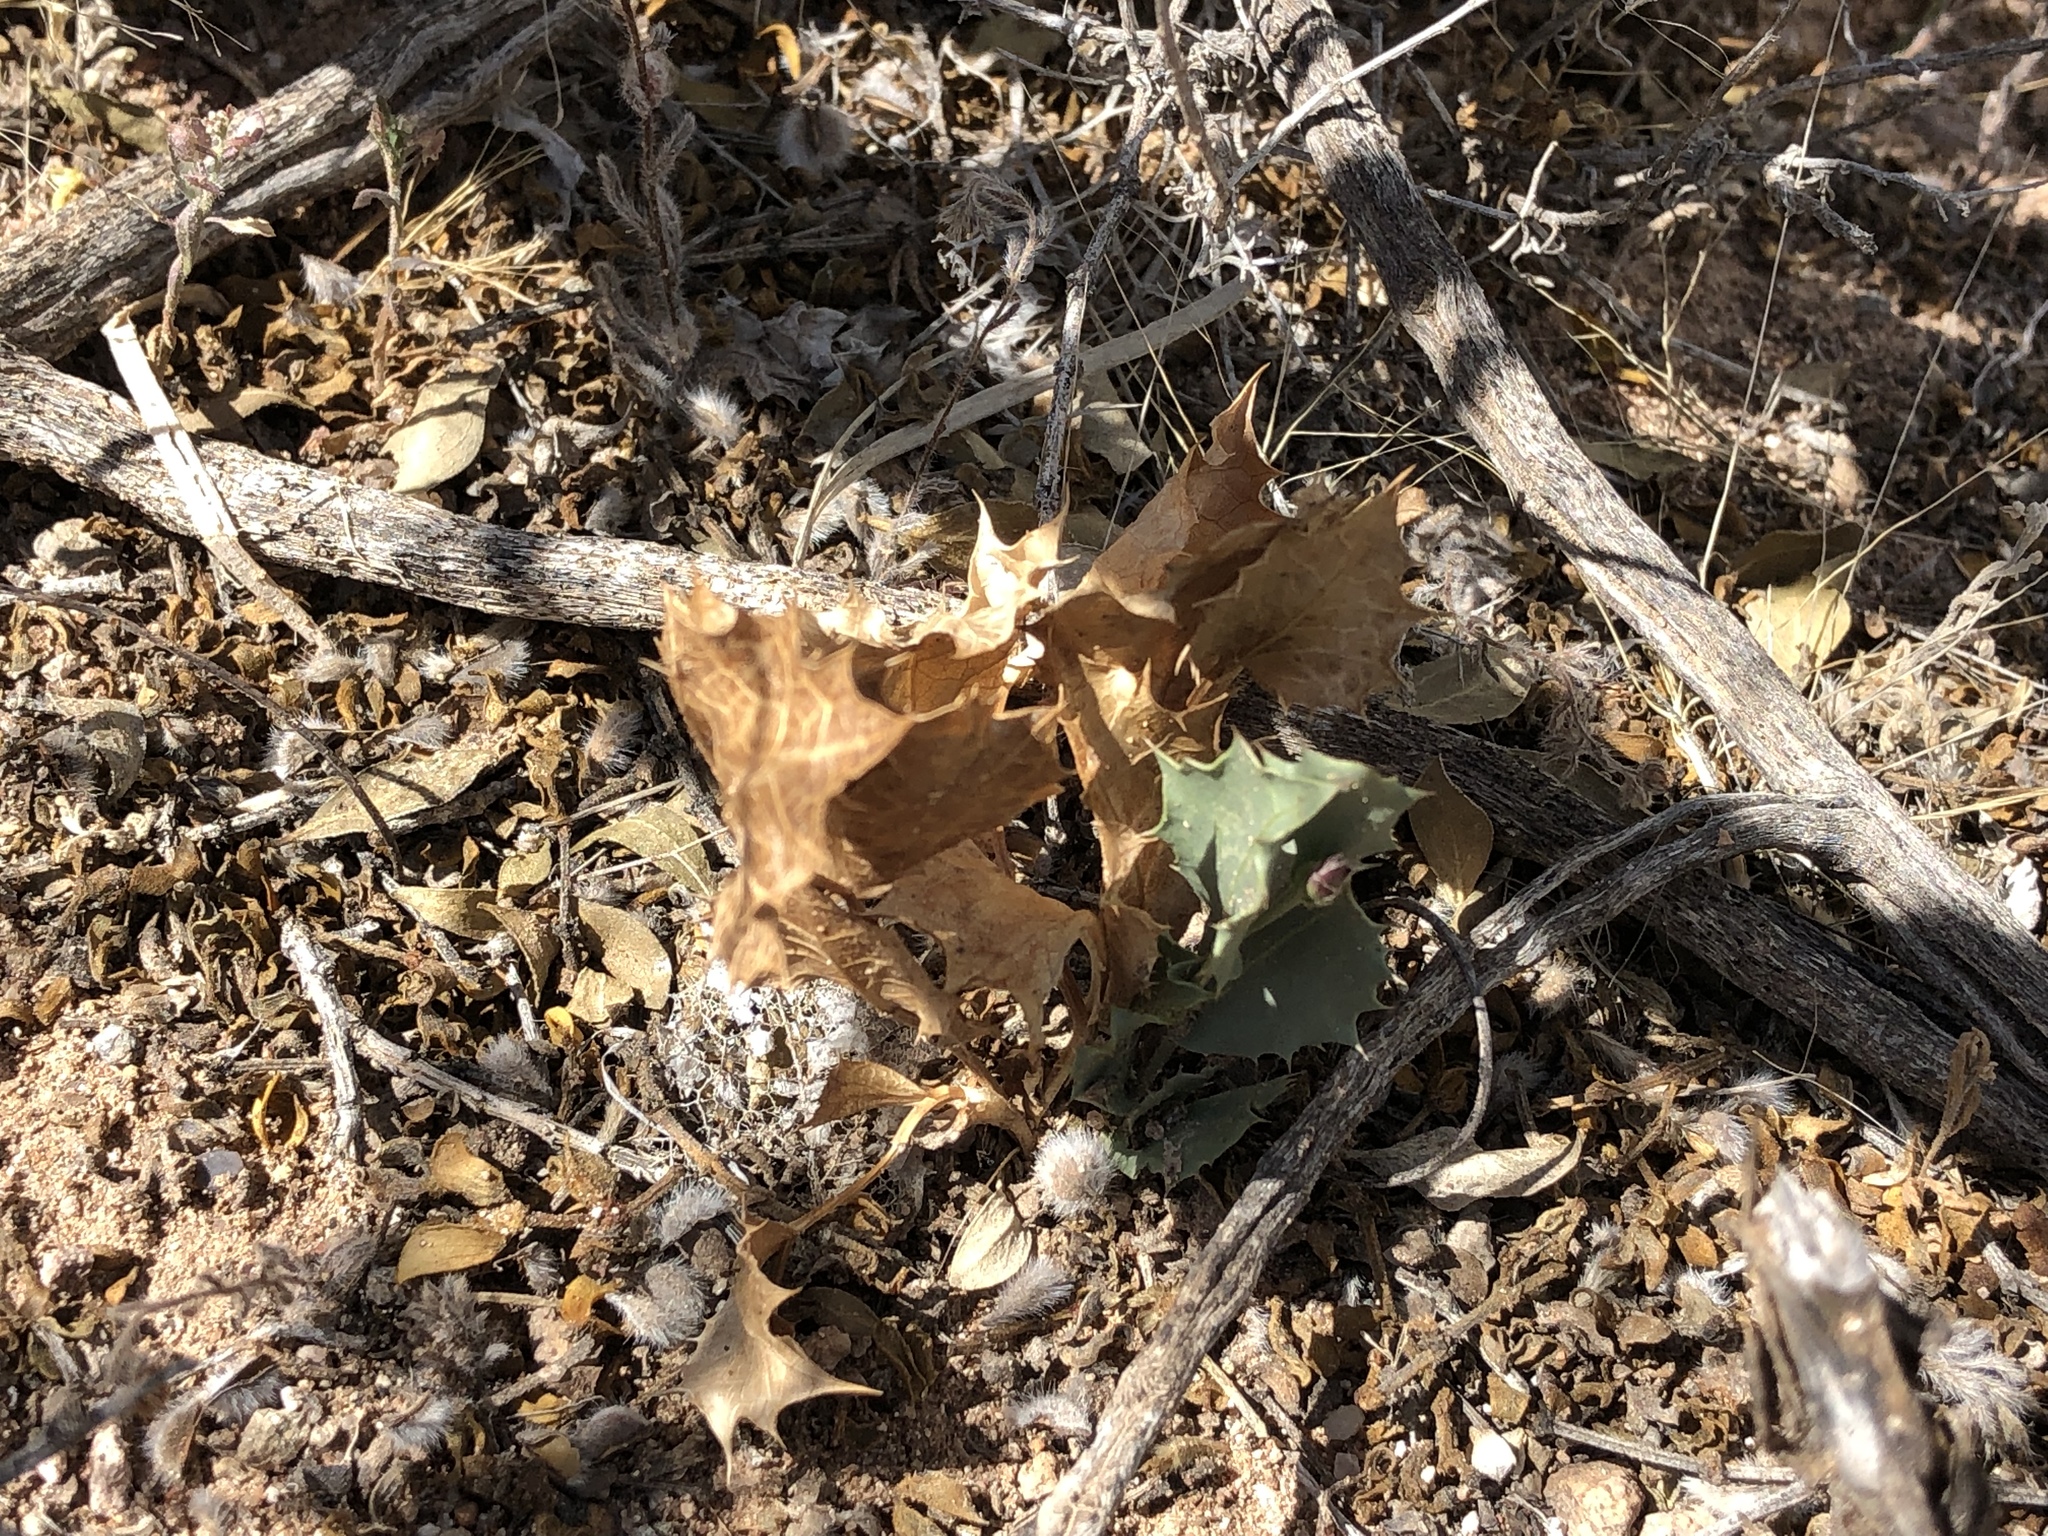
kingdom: Plantae
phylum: Tracheophyta
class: Magnoliopsida
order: Asterales
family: Asteraceae
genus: Acourtia
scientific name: Acourtia nana
